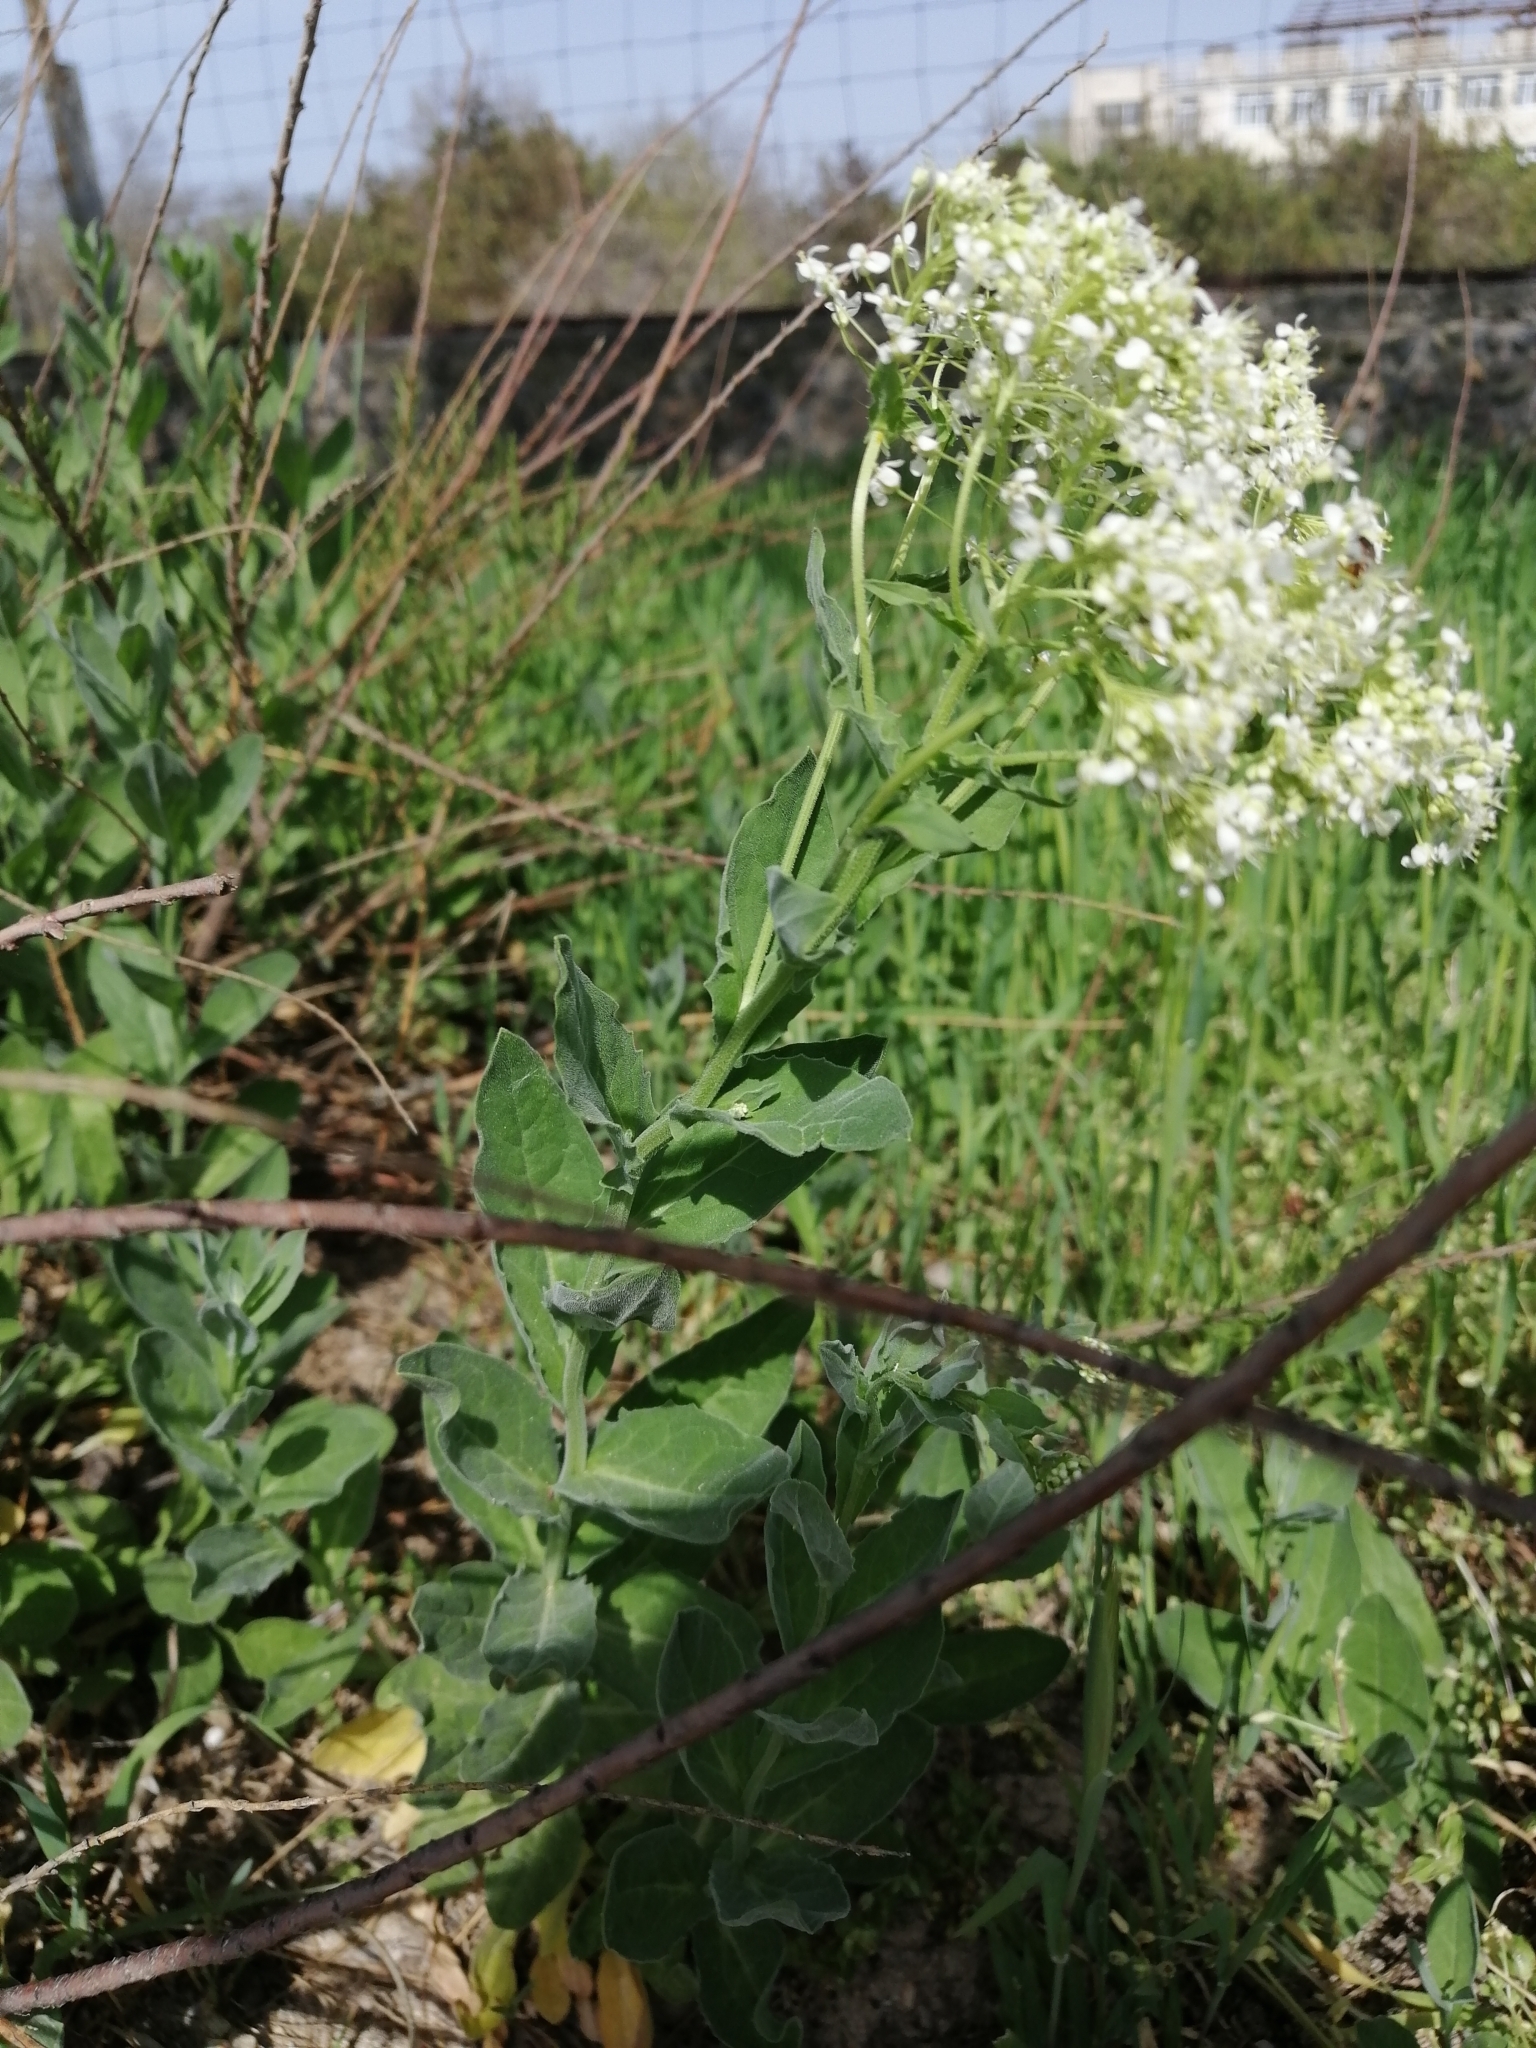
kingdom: Plantae
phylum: Tracheophyta
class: Magnoliopsida
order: Brassicales
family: Brassicaceae
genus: Lepidium
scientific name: Lepidium draba
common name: Hoary cress
